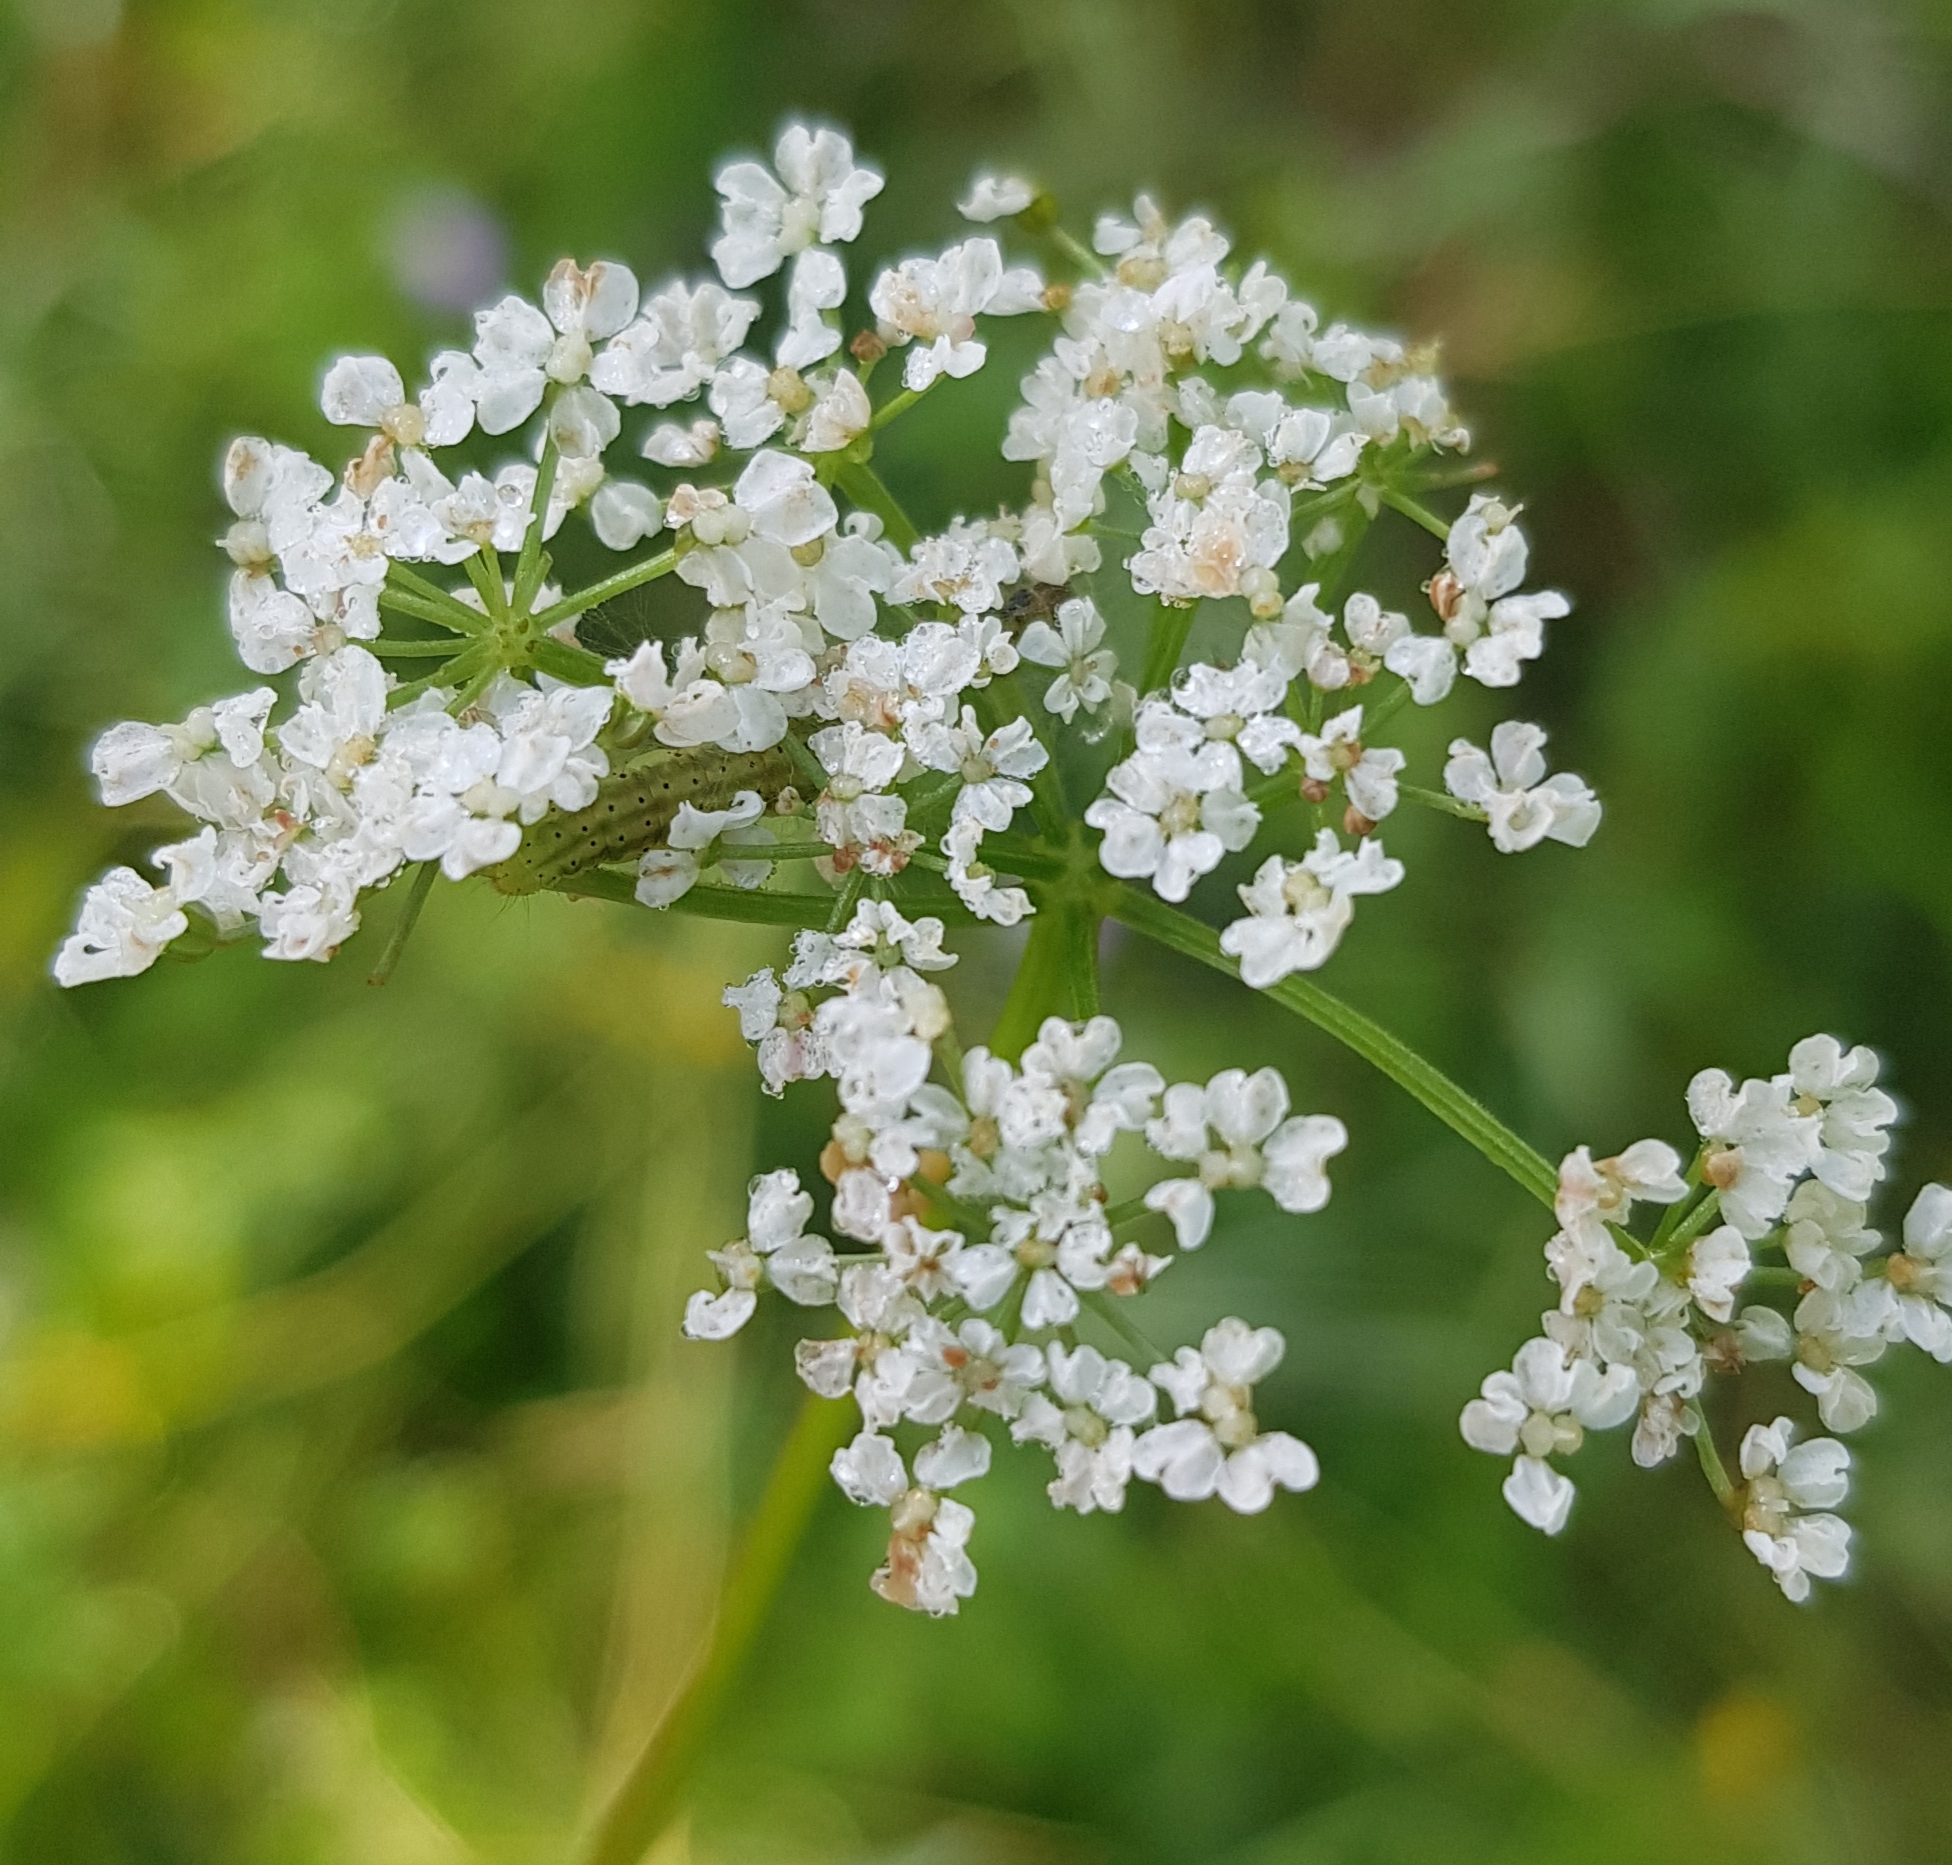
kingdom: Plantae
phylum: Tracheophyta
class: Magnoliopsida
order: Apiales
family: Apiaceae
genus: Carum
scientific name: Carum carvi
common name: Caraway
